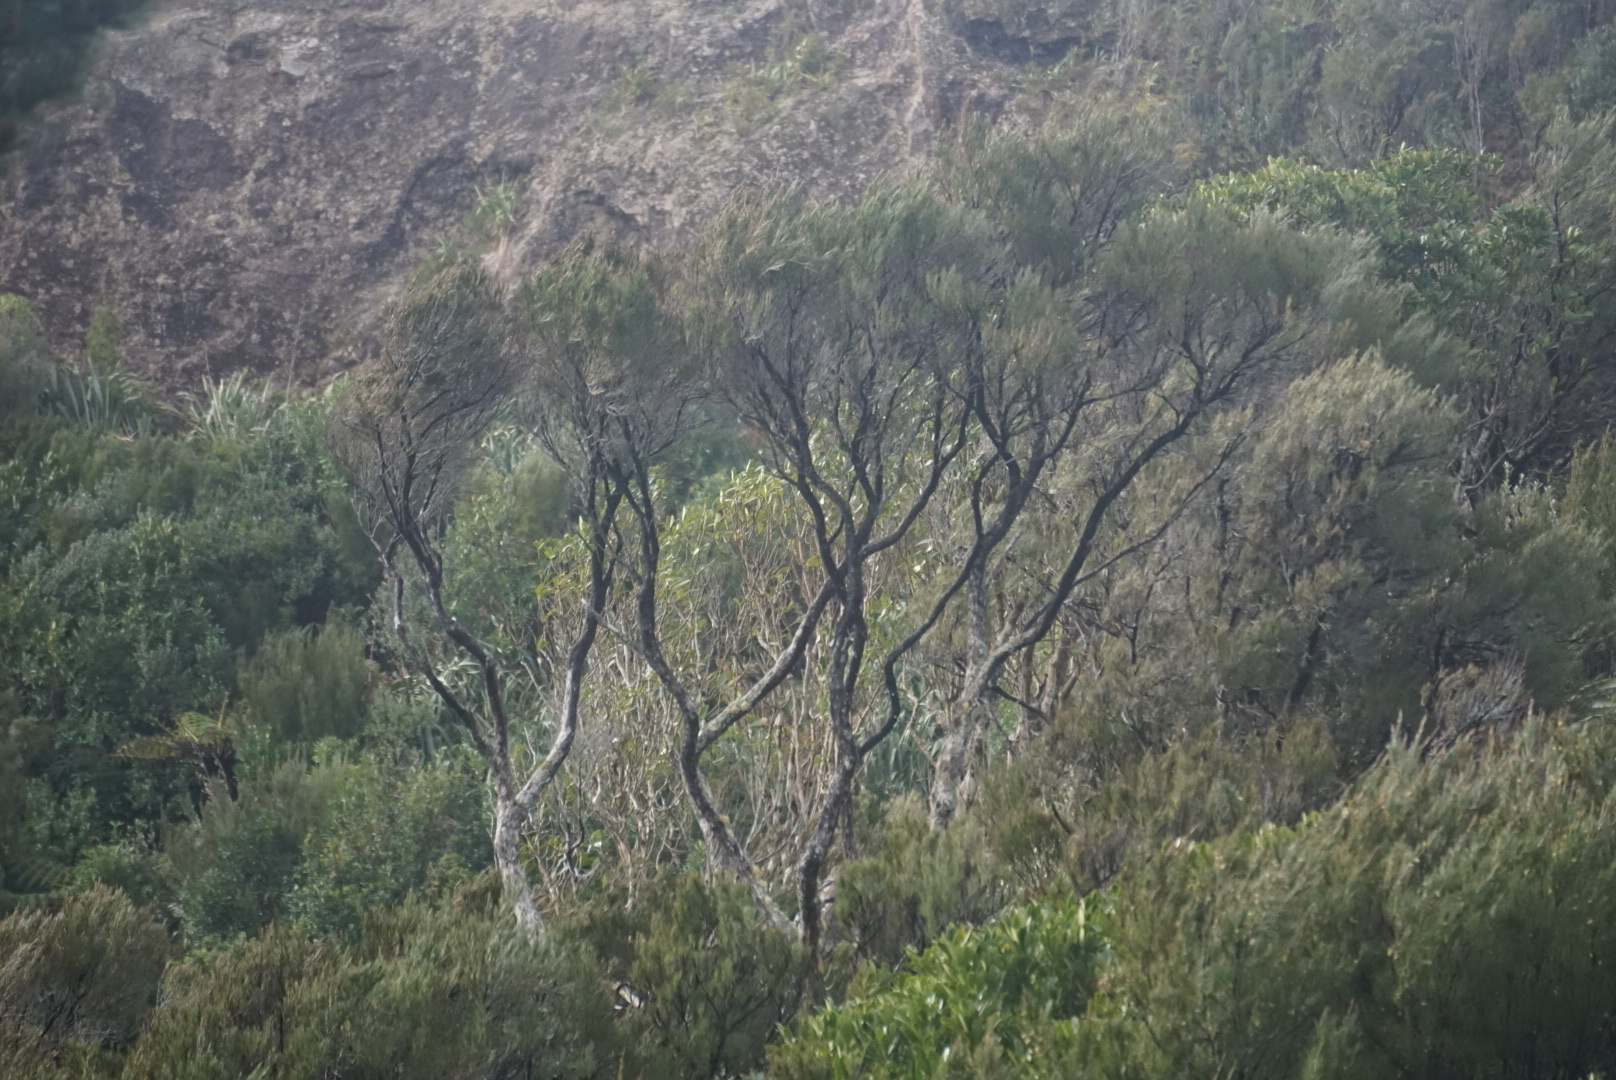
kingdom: Plantae
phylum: Tracheophyta
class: Magnoliopsida
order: Ericales
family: Ericaceae
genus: Dracophyllum
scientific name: Dracophyllum arboreum
